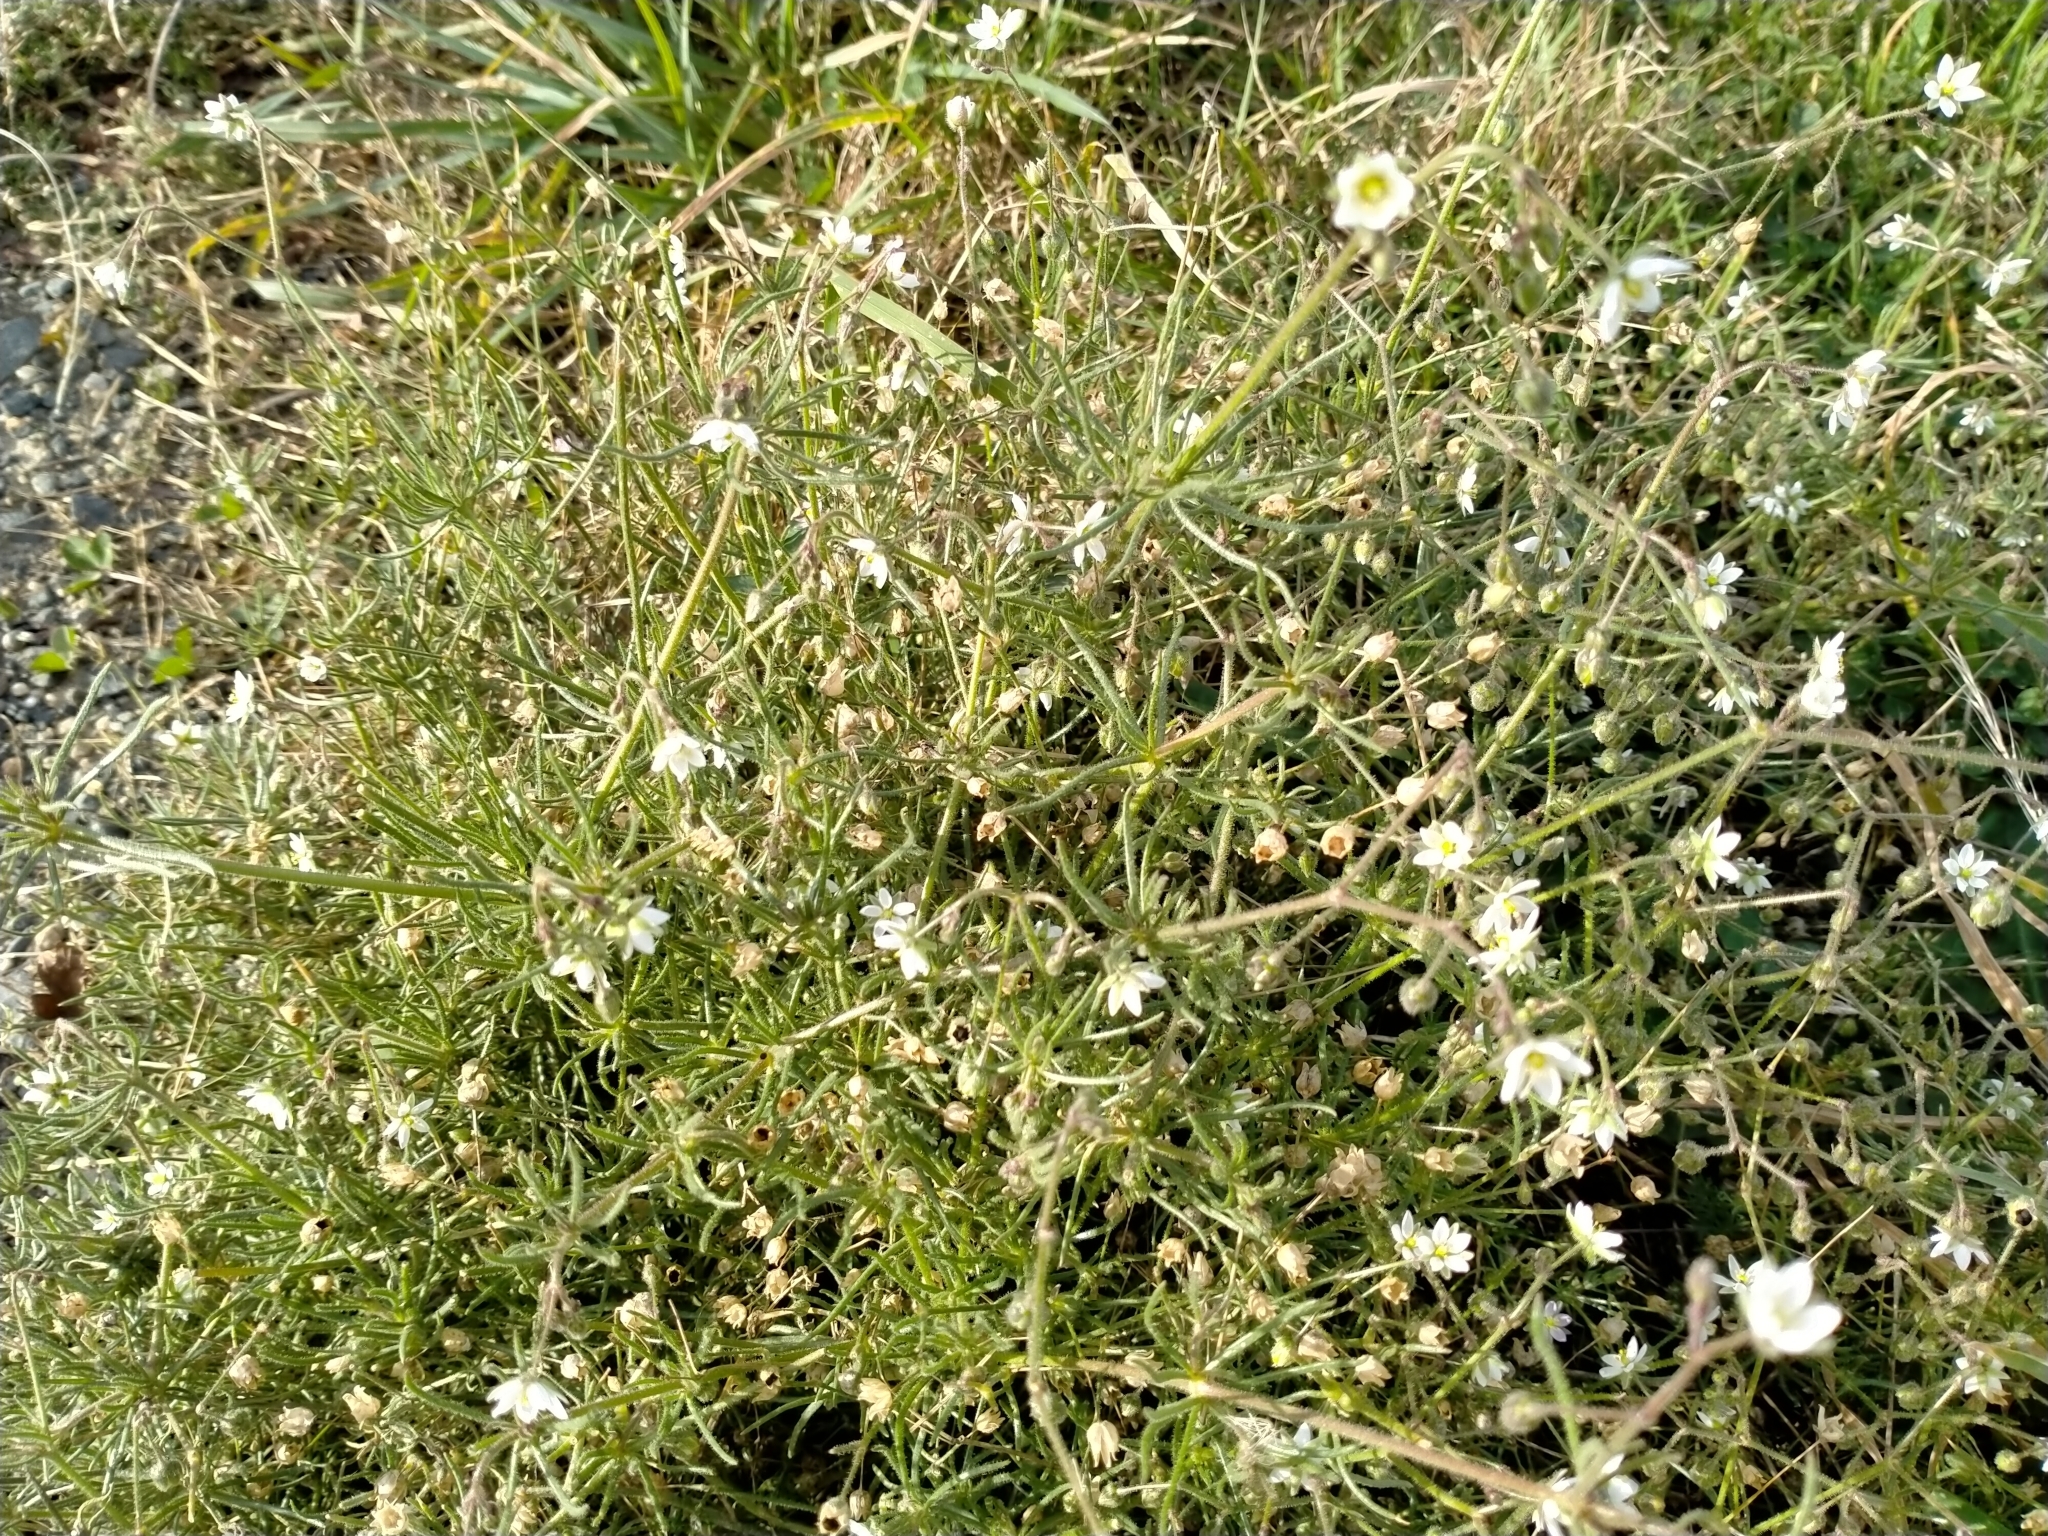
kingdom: Plantae
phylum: Tracheophyta
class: Magnoliopsida
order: Caryophyllales
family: Caryophyllaceae
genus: Spergula
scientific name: Spergula arvensis
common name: Corn spurrey
